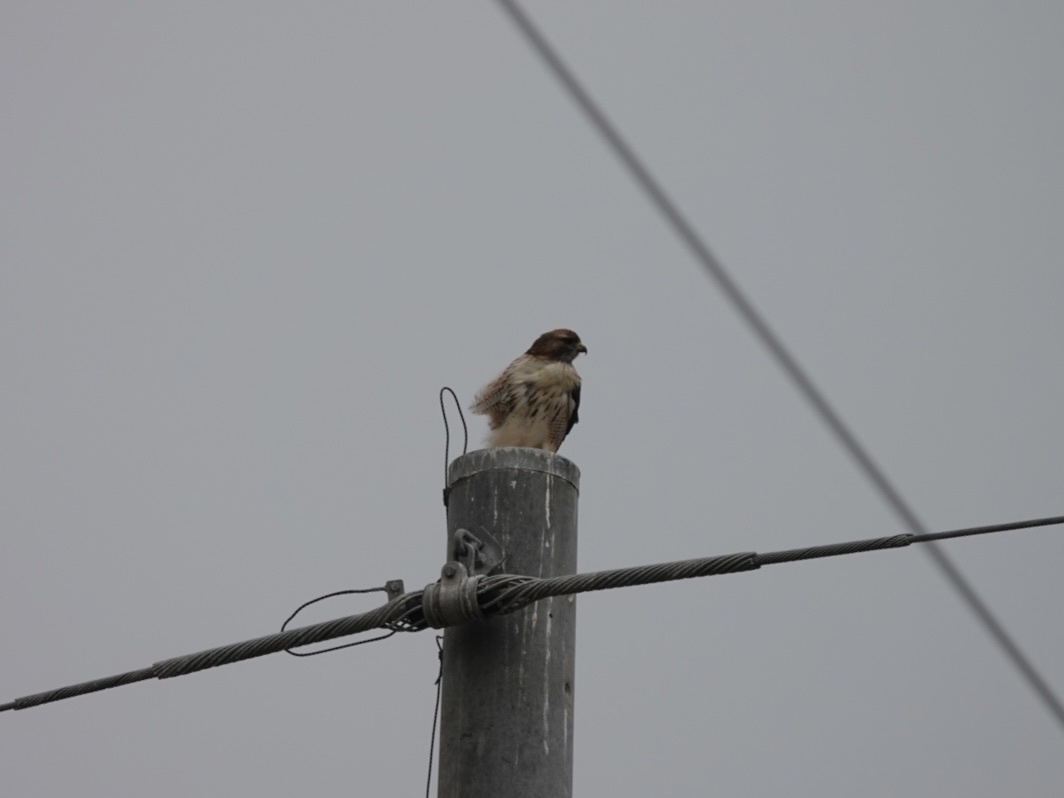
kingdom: Animalia
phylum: Chordata
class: Aves
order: Accipitriformes
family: Accipitridae
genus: Buteo
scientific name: Buteo jamaicensis
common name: Red-tailed hawk
